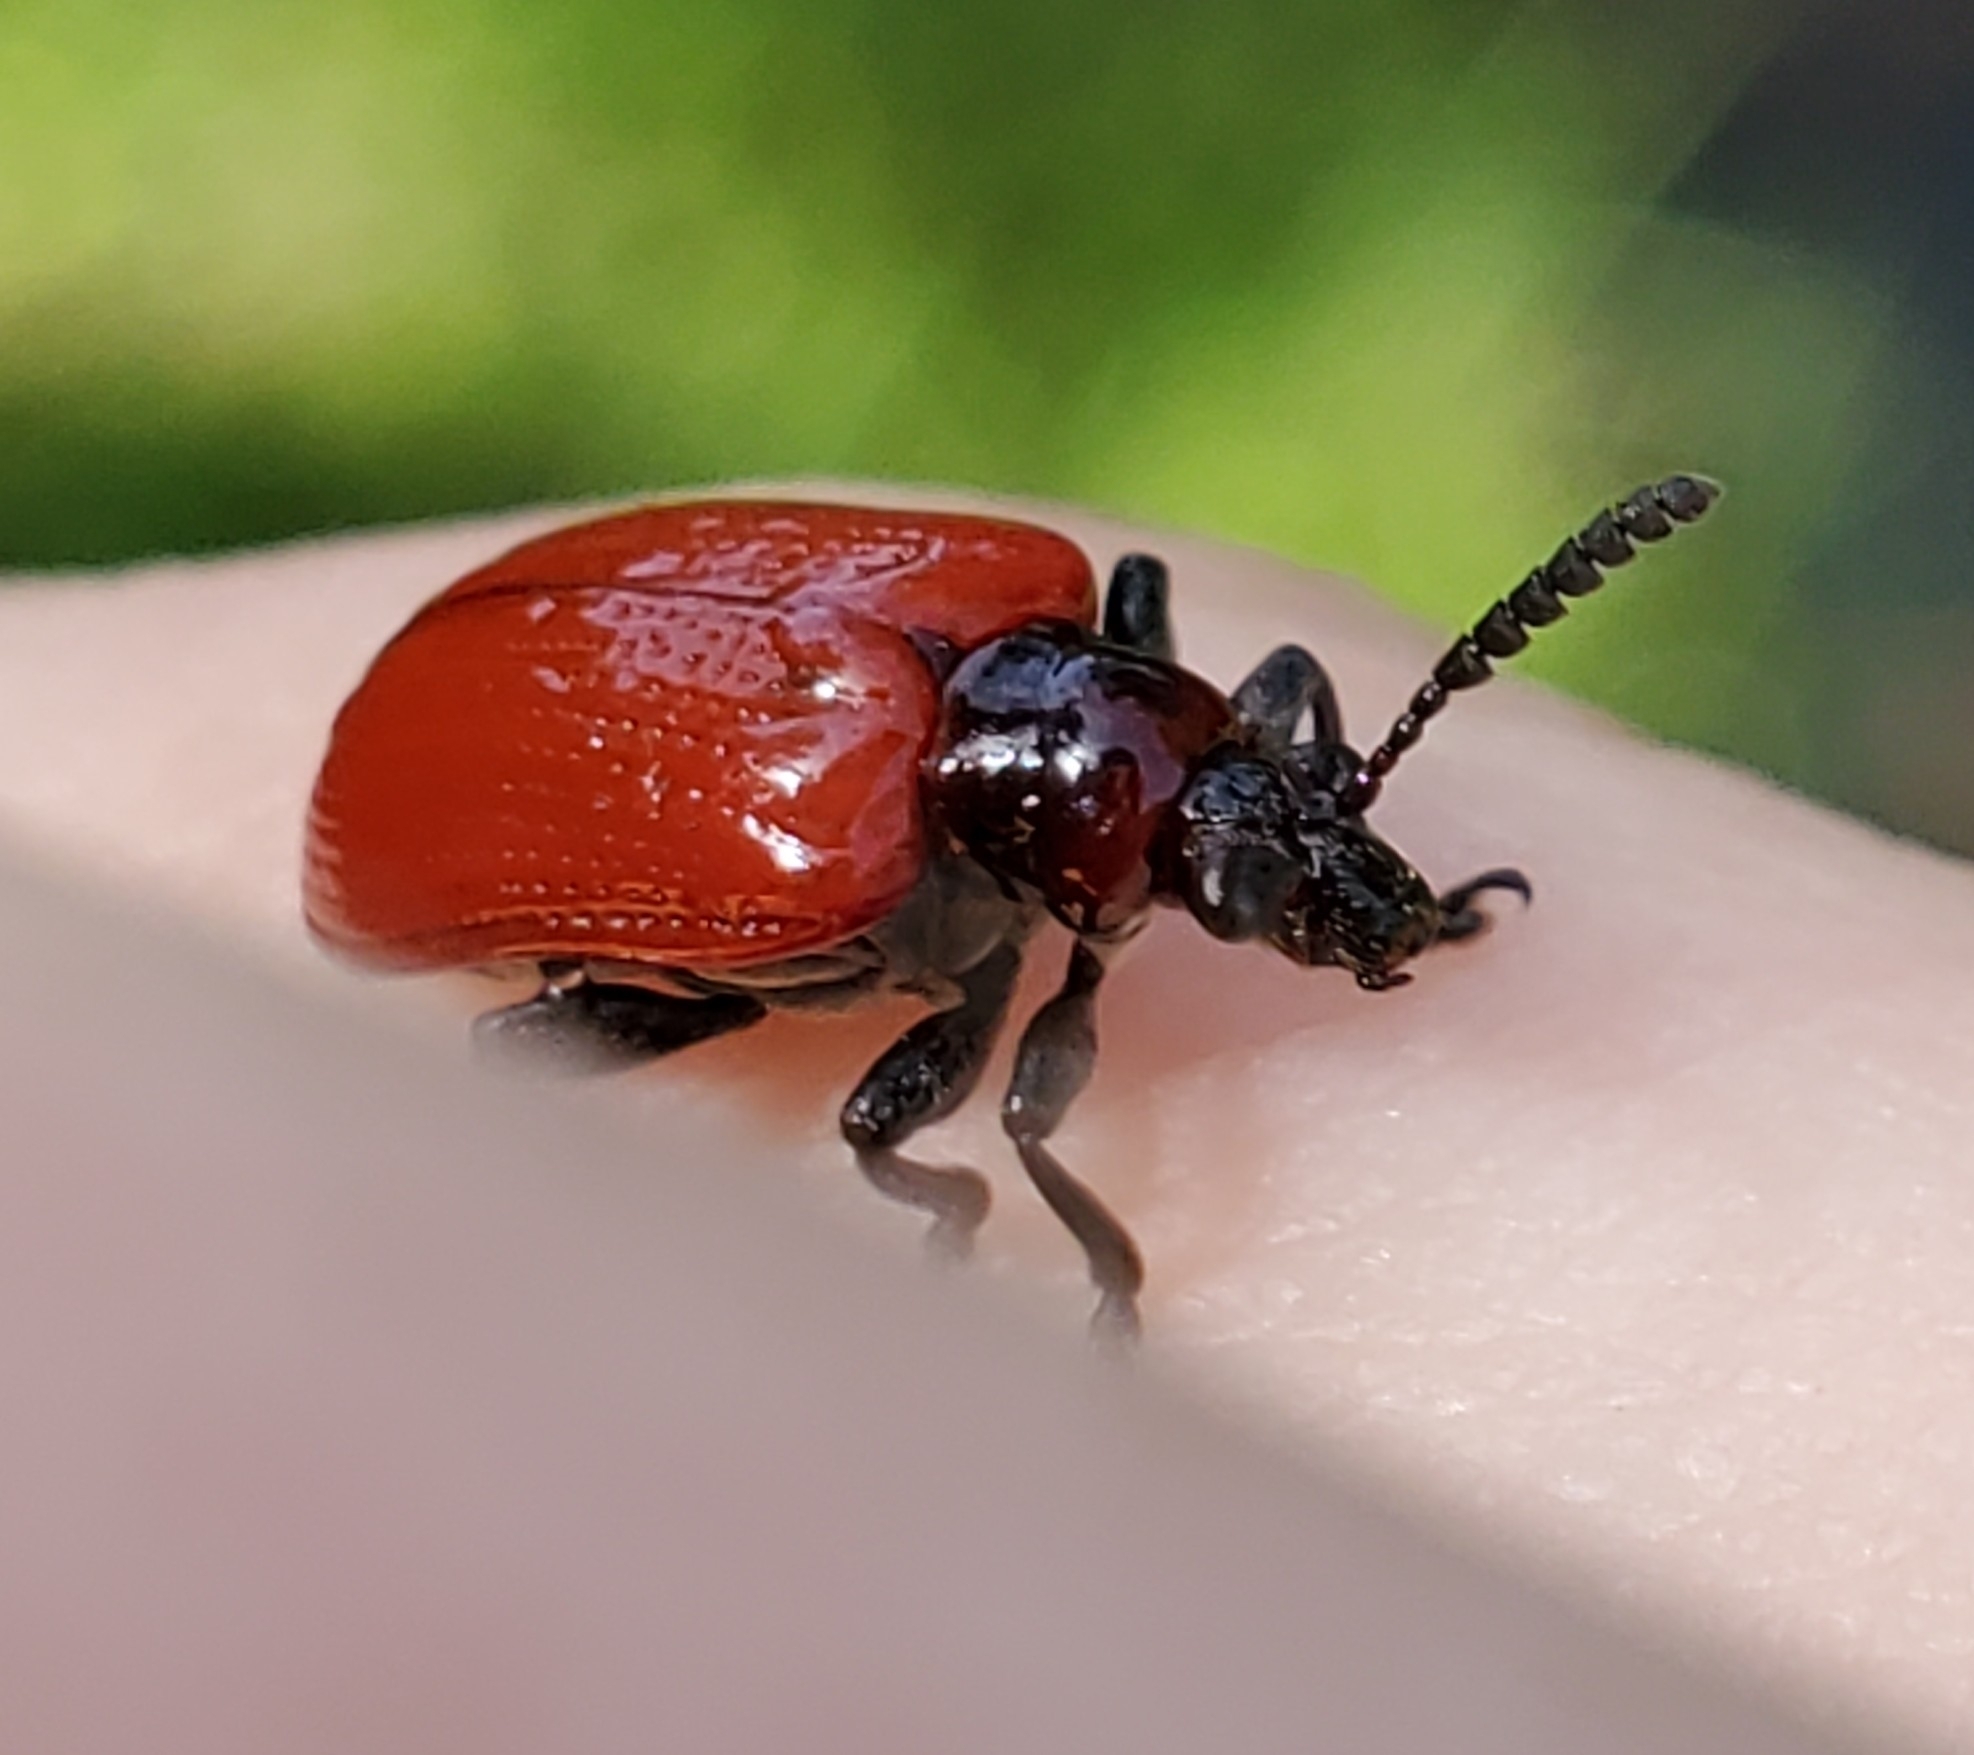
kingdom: Animalia
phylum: Arthropoda
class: Insecta
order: Coleoptera
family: Chrysomelidae
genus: Lilioceris
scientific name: Lilioceris cheni
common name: Leaf beetle
